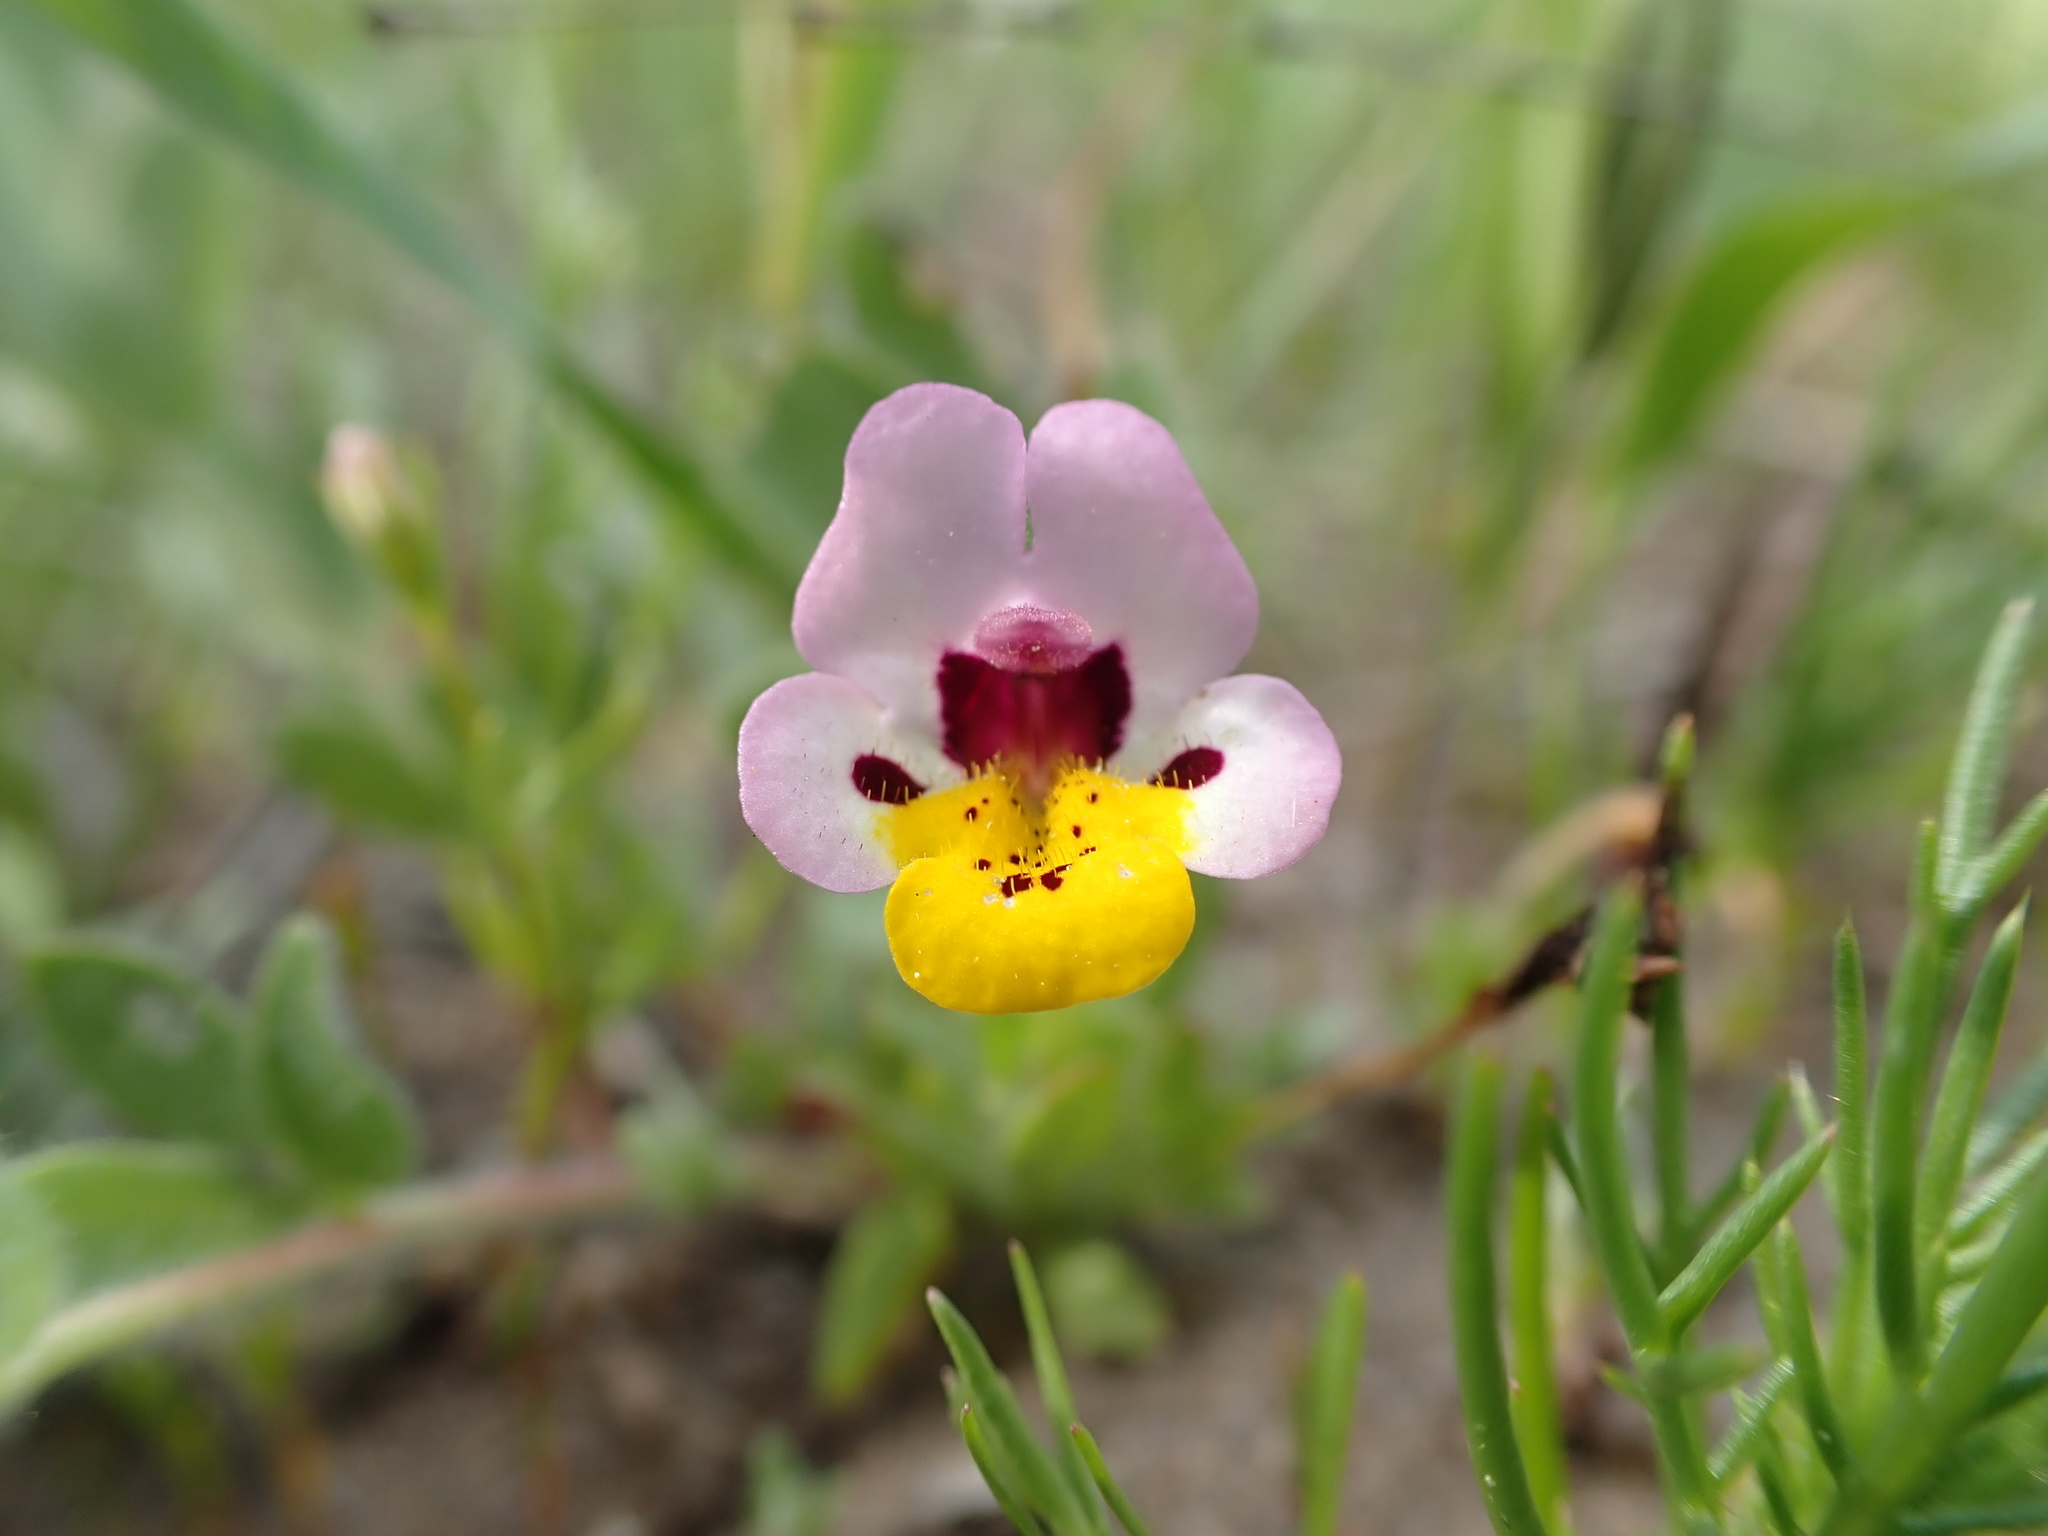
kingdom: Plantae
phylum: Tracheophyta
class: Magnoliopsida
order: Lamiales
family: Phrymaceae
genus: Diplacus
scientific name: Diplacus pulchellus
